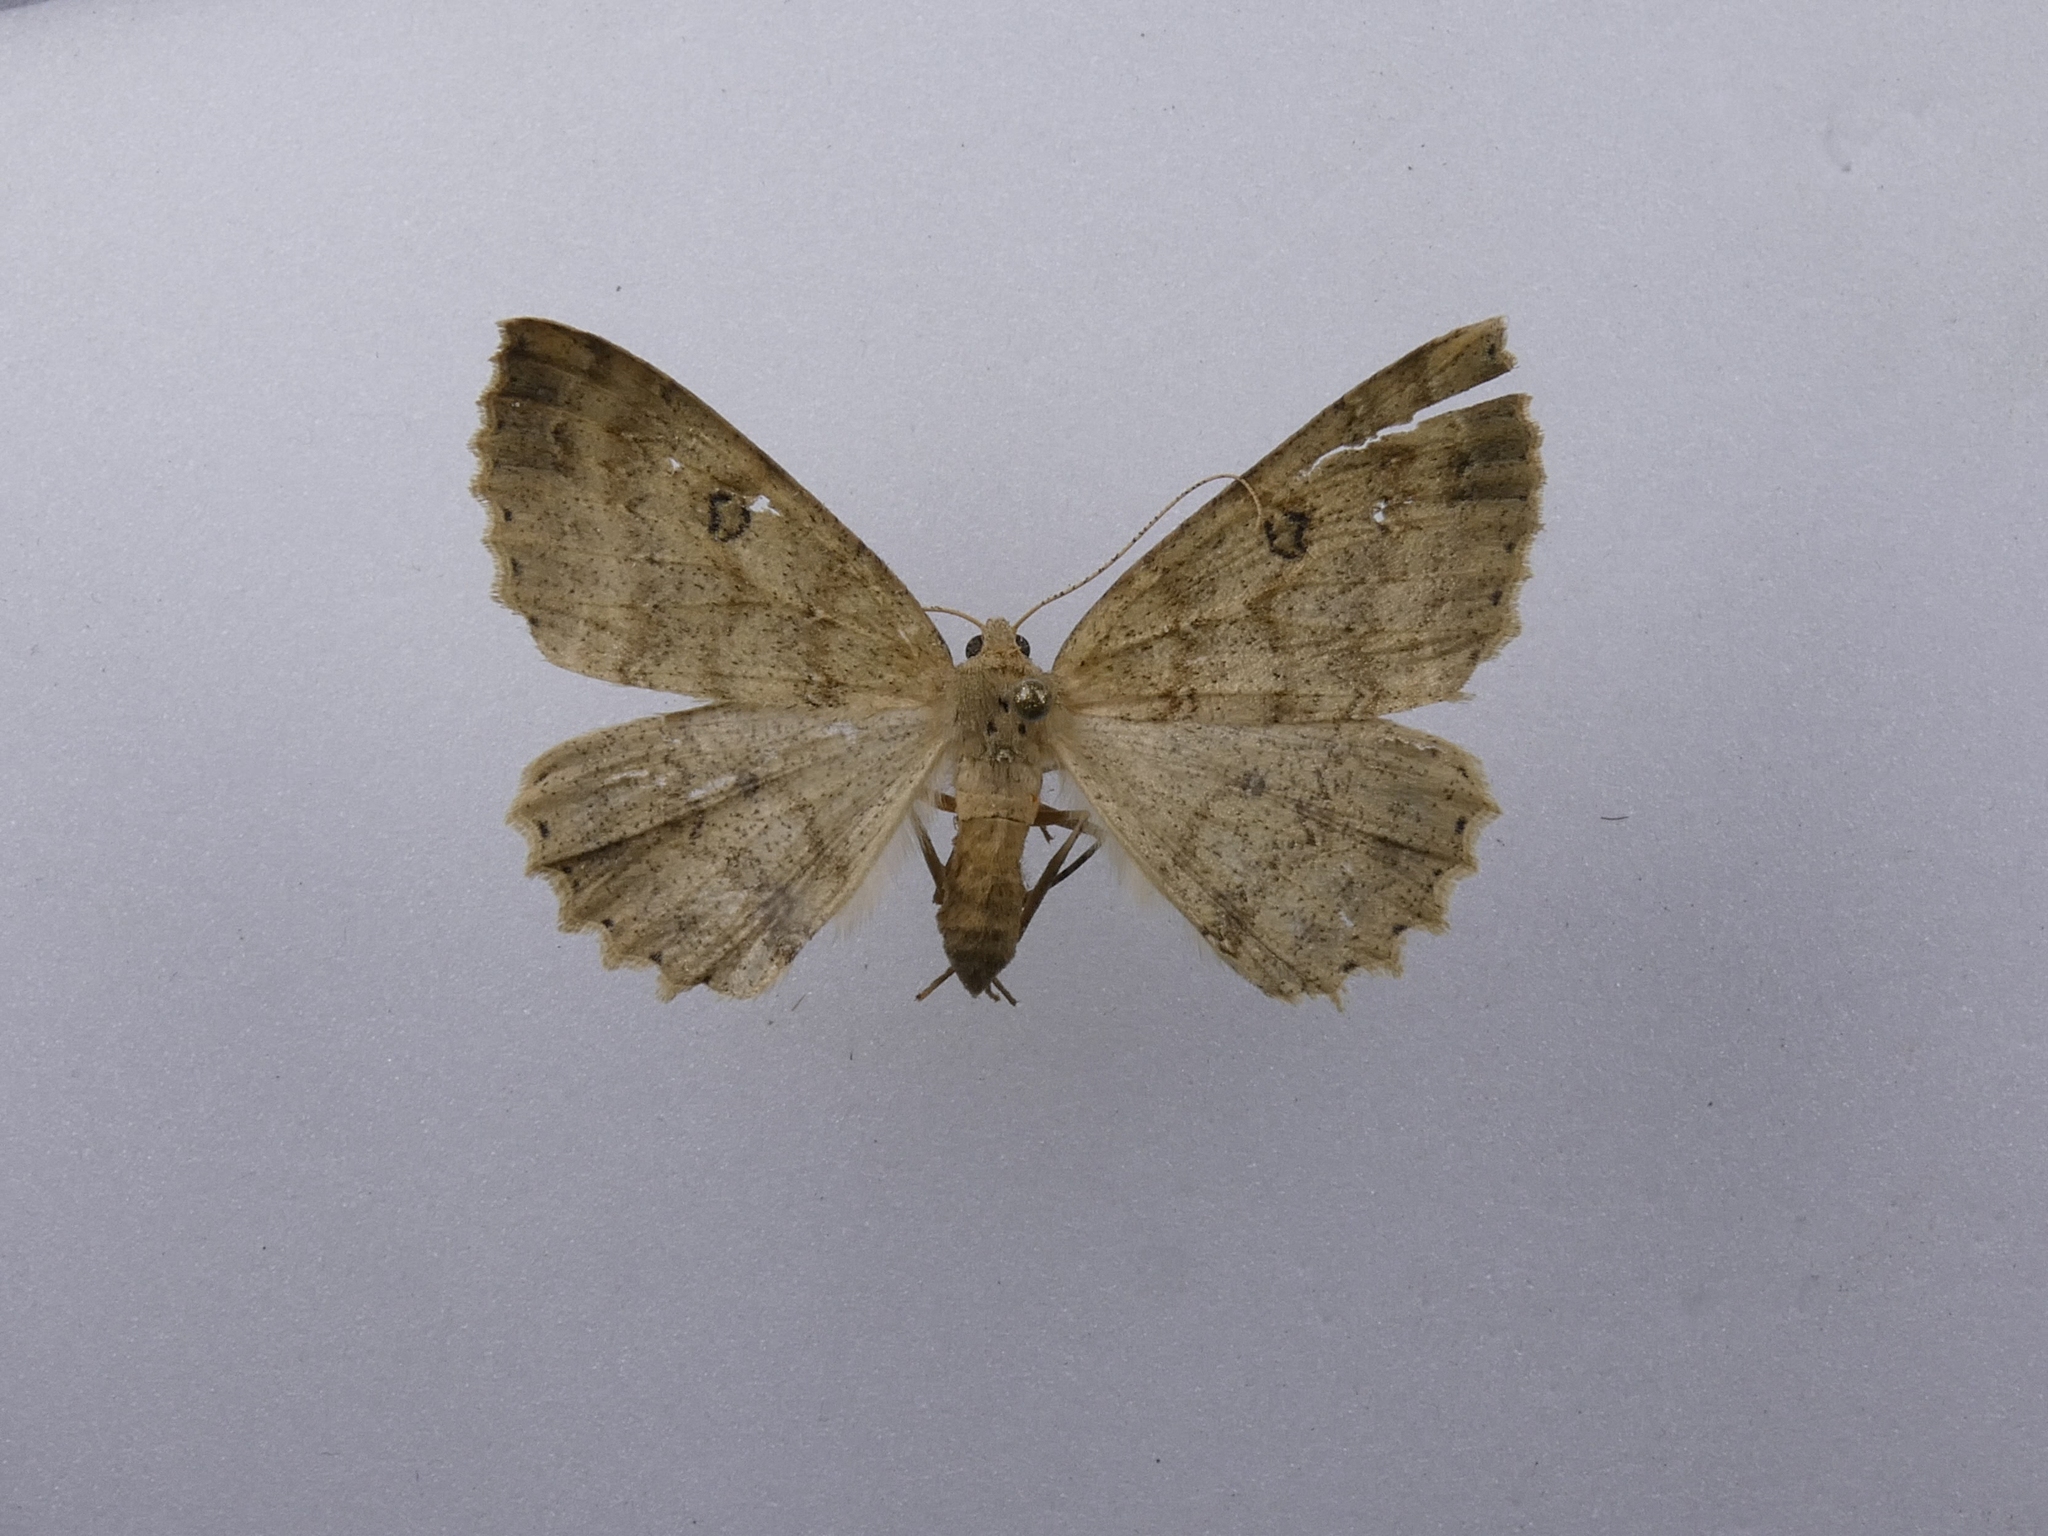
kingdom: Animalia
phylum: Arthropoda
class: Insecta
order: Lepidoptera
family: Geometridae
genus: Cleora
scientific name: Cleora scriptaria
